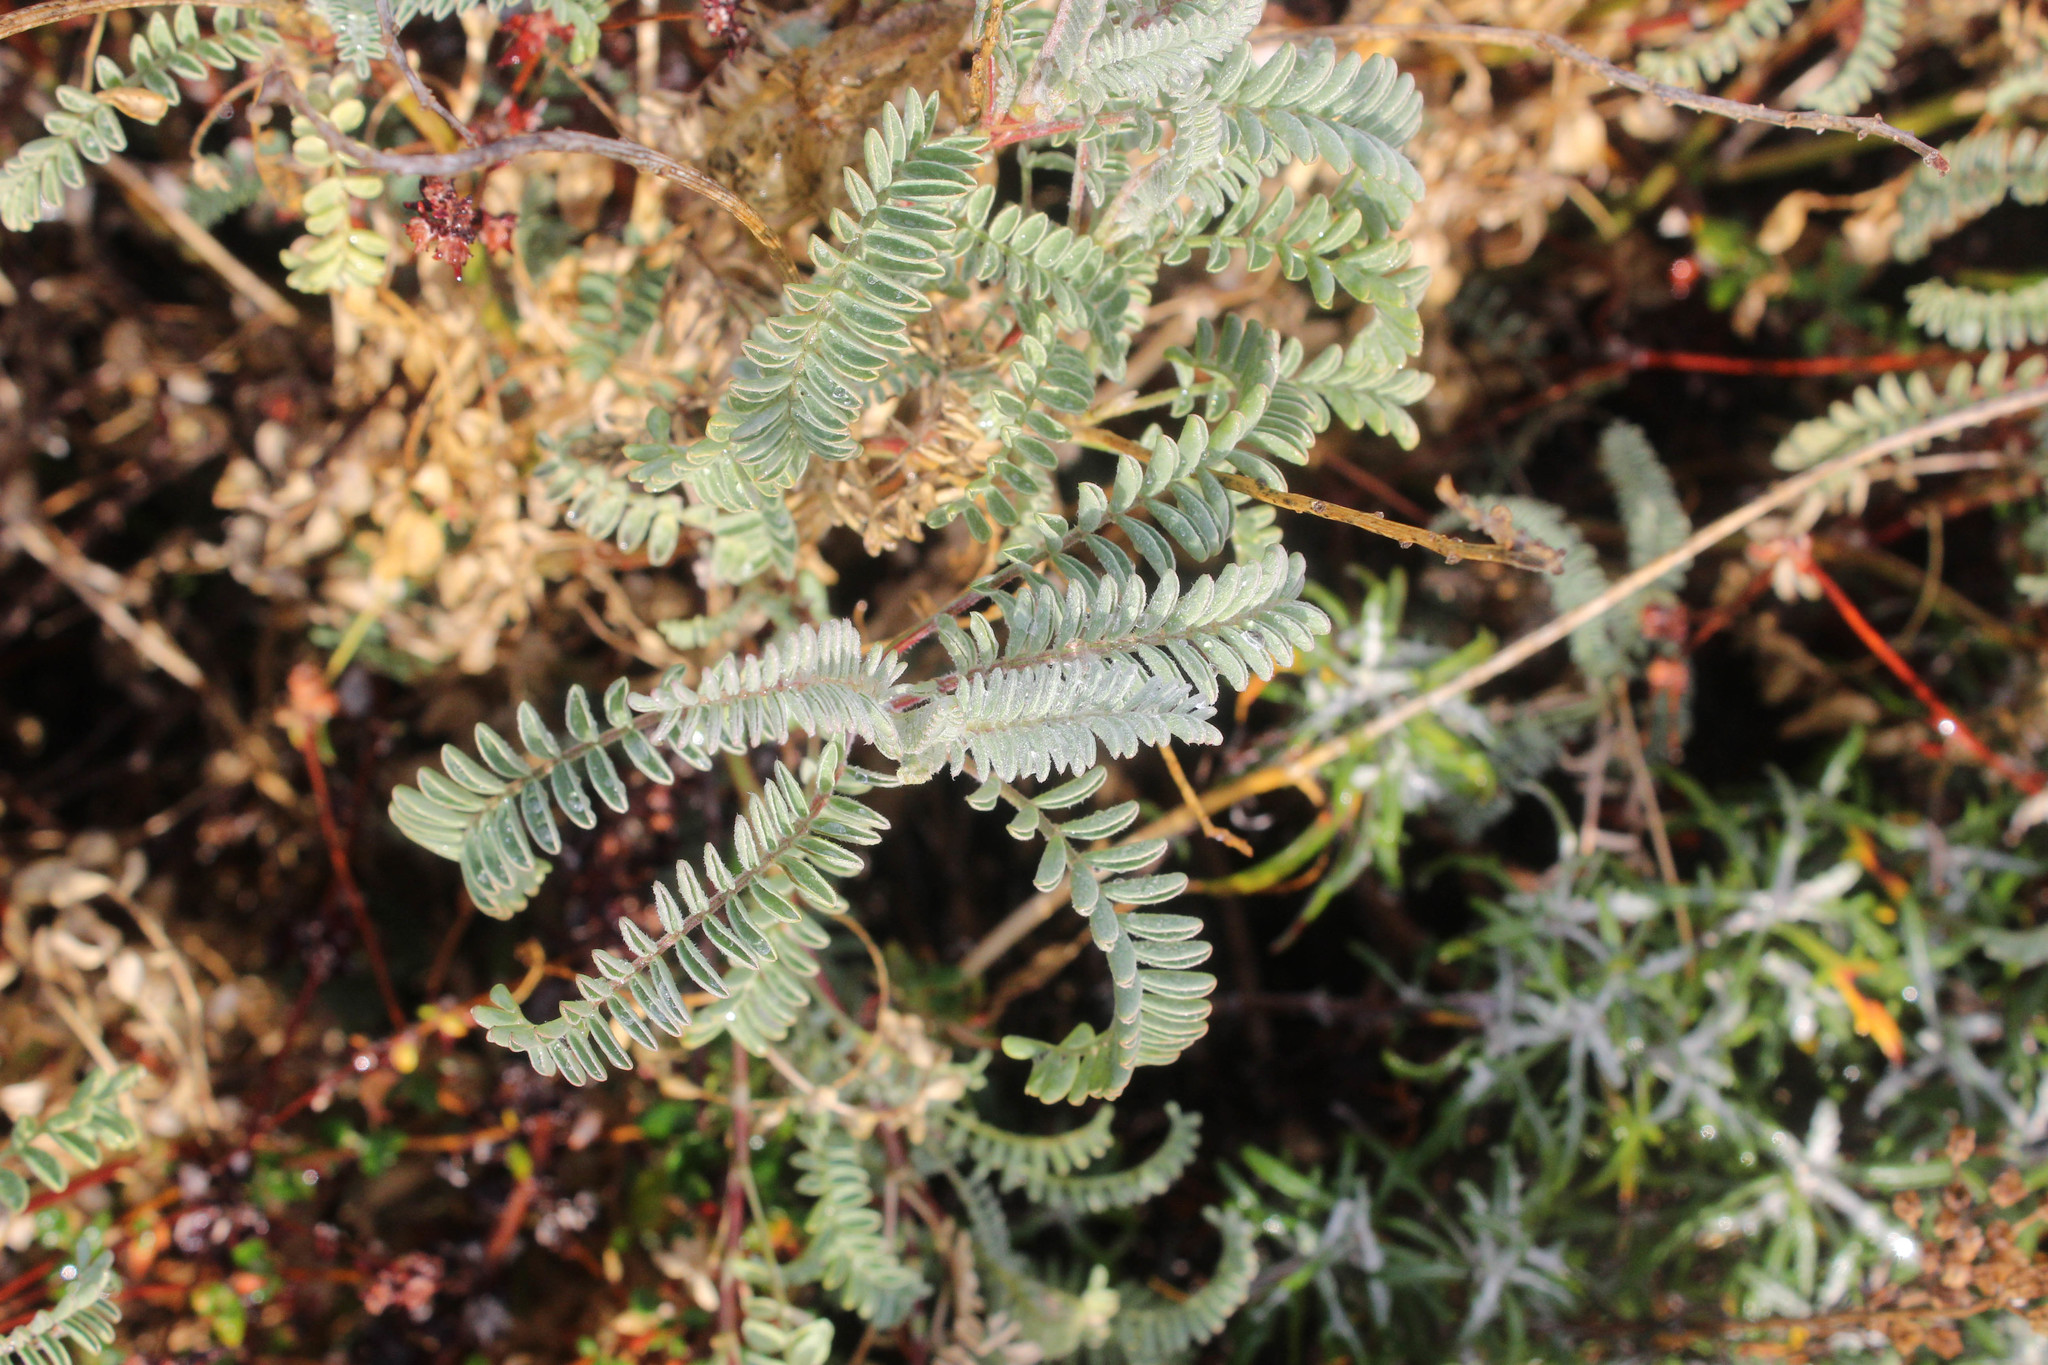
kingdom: Plantae
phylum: Tracheophyta
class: Magnoliopsida
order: Fabales
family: Fabaceae
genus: Astragalus
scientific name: Astragalus nuttallii
